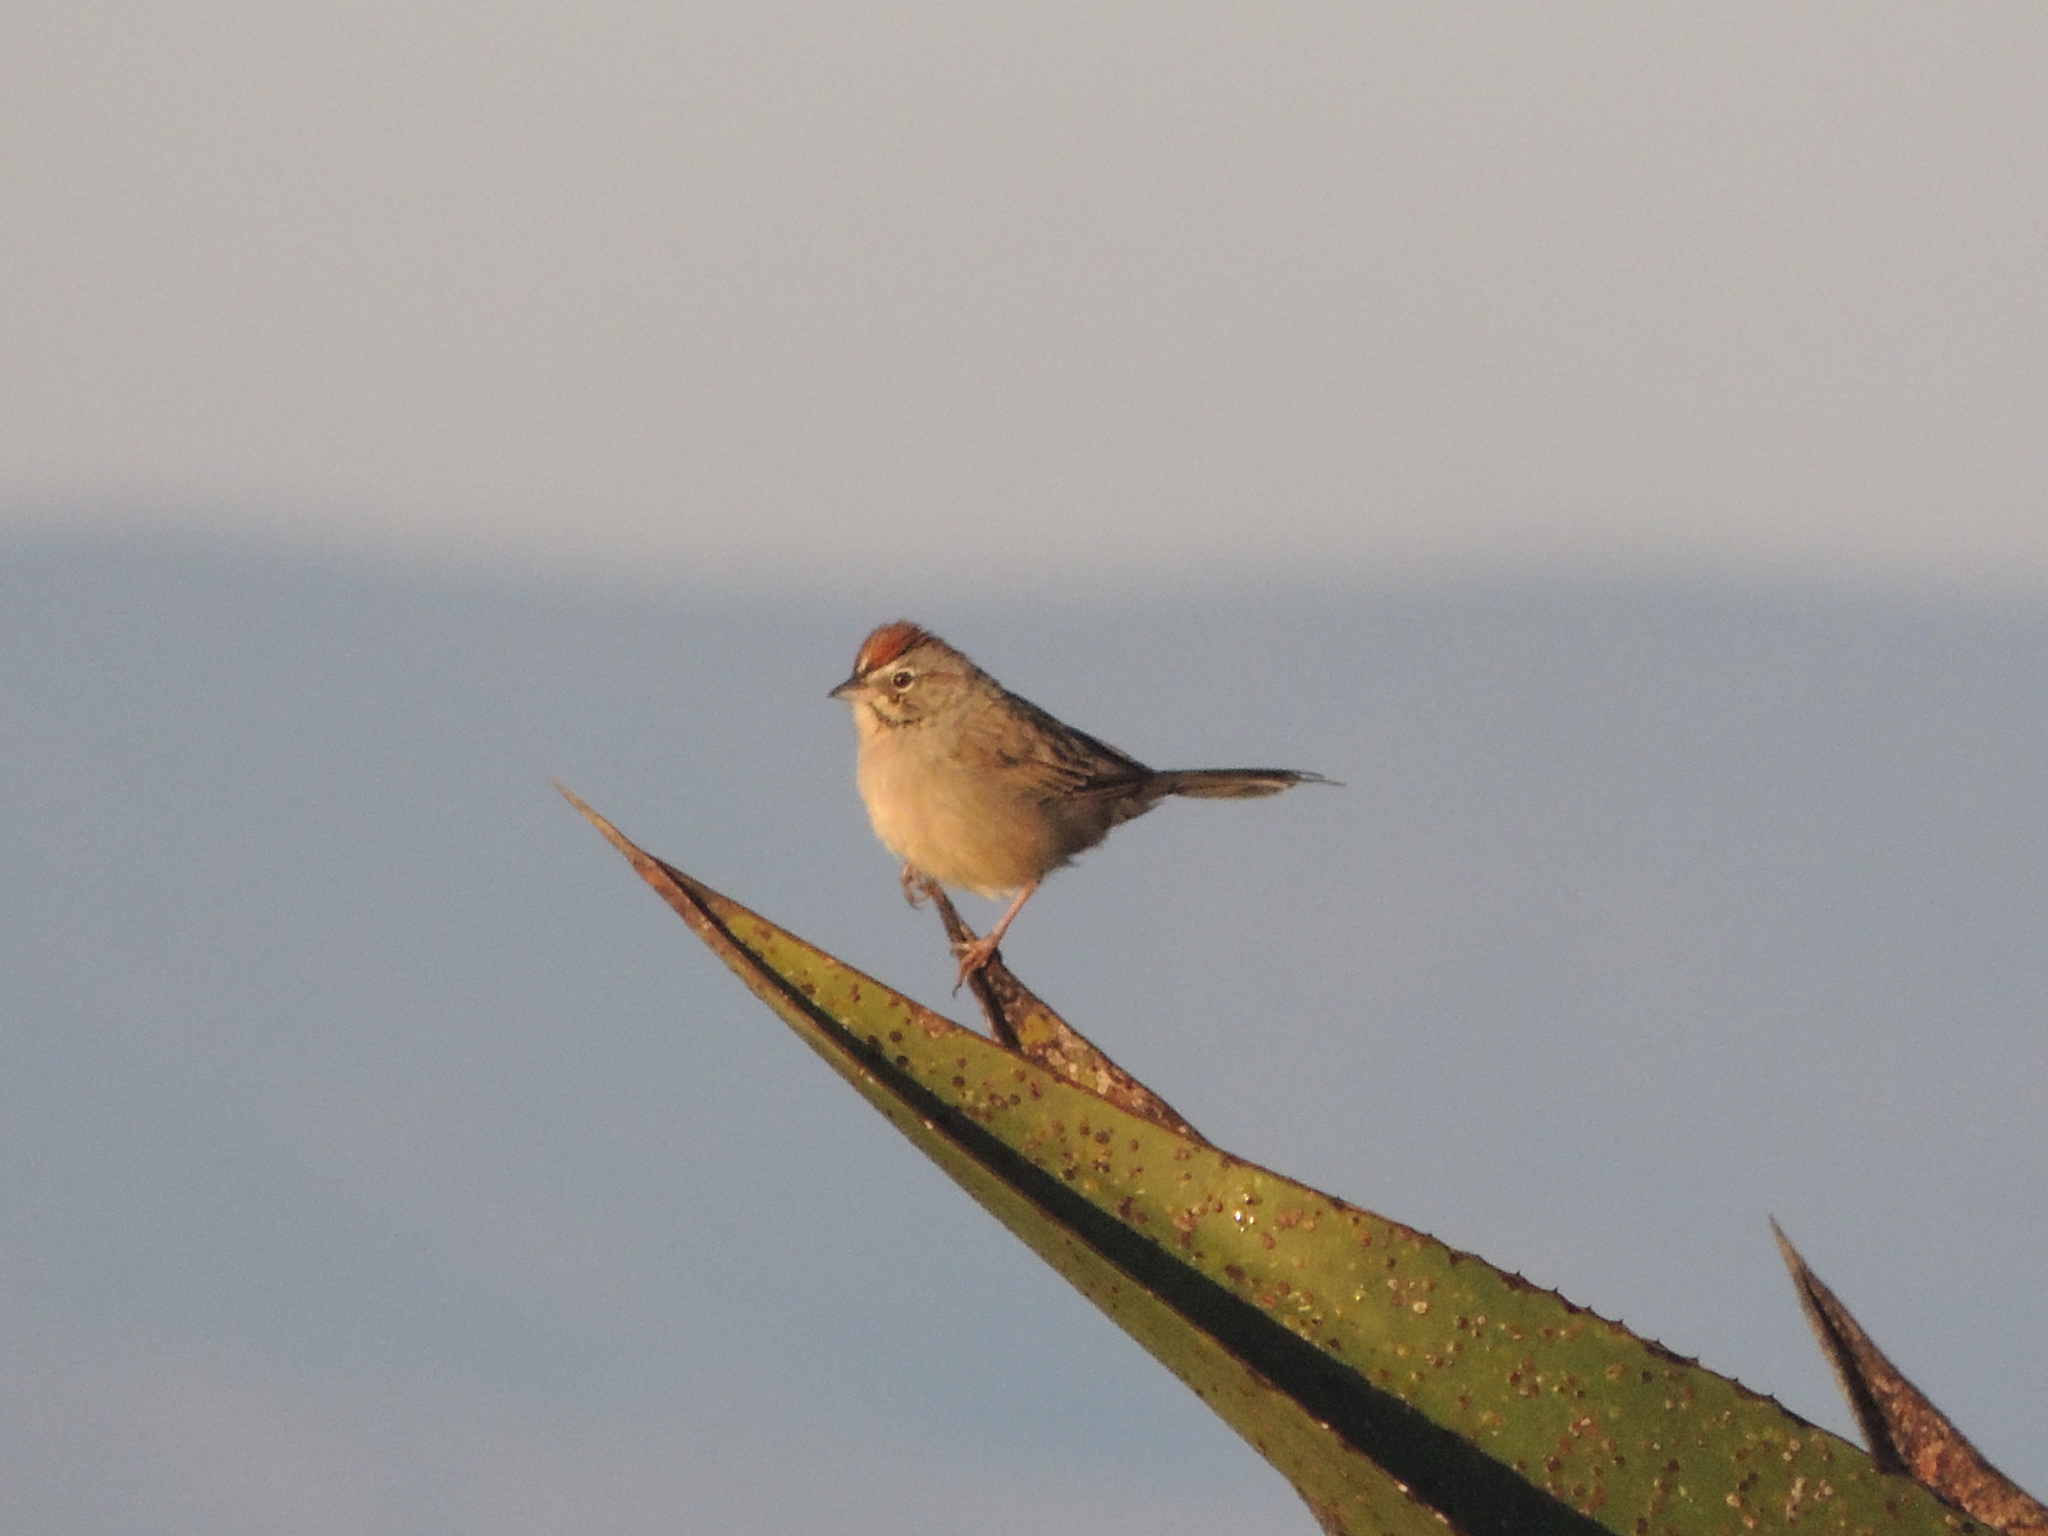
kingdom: Animalia
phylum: Chordata
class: Aves
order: Passeriformes
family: Passerellidae
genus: Aimophila
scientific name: Aimophila ruficeps
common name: Rufous-crowned sparrow
